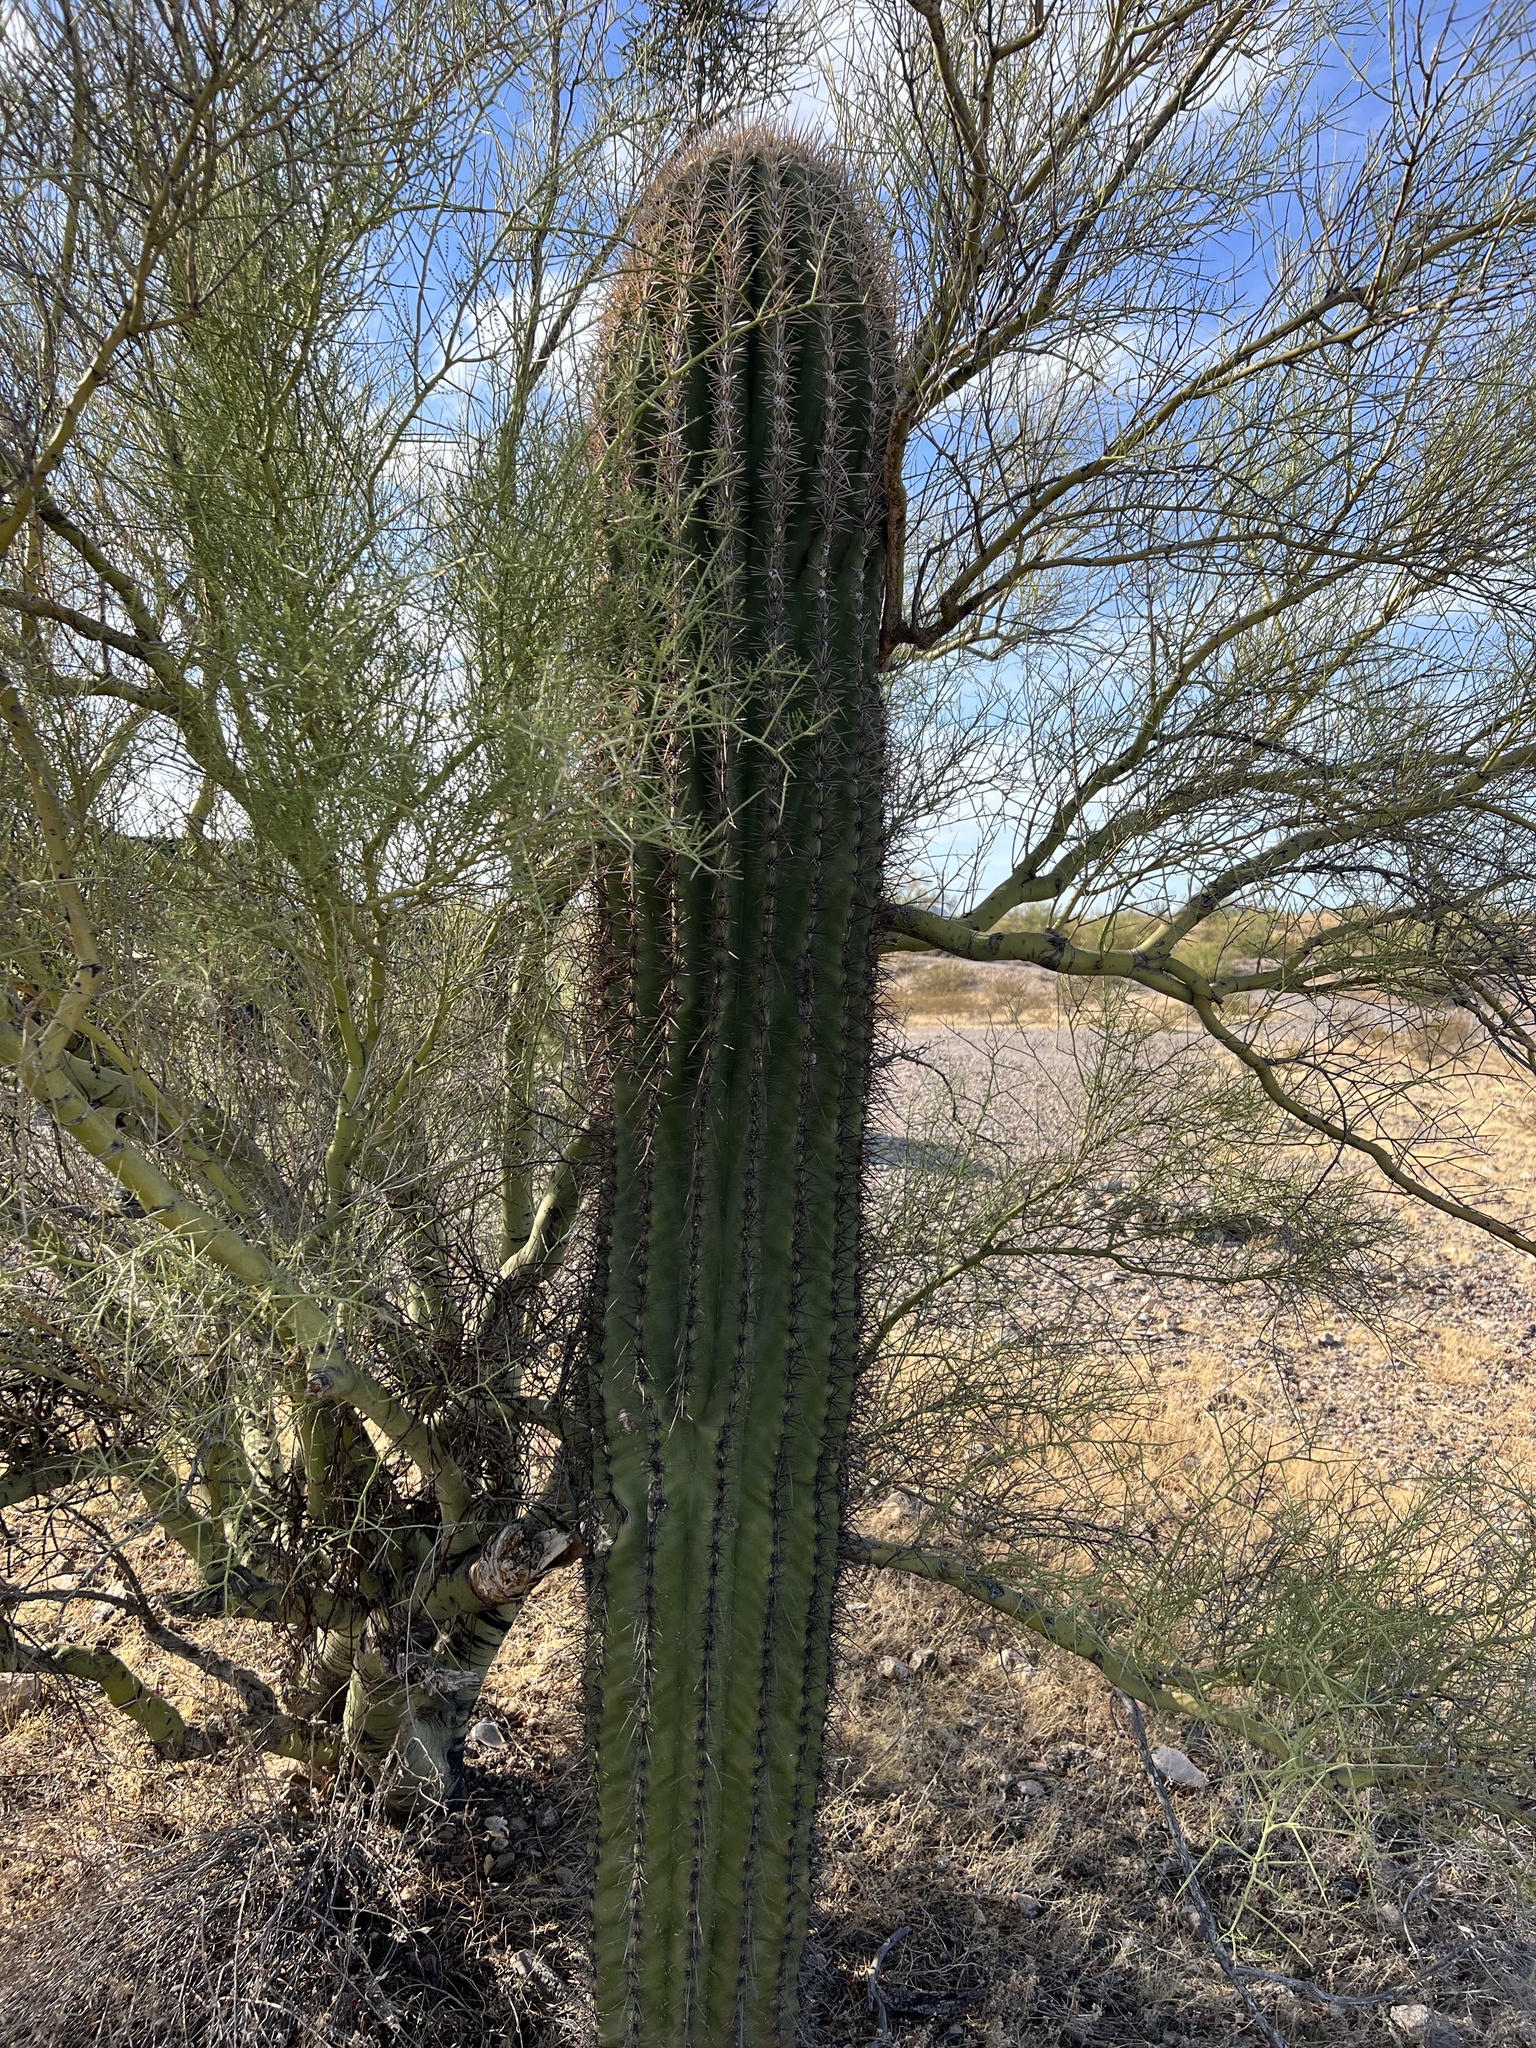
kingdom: Plantae
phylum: Tracheophyta
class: Magnoliopsida
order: Caryophyllales
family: Cactaceae
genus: Carnegiea
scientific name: Carnegiea gigantea
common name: Saguaro
